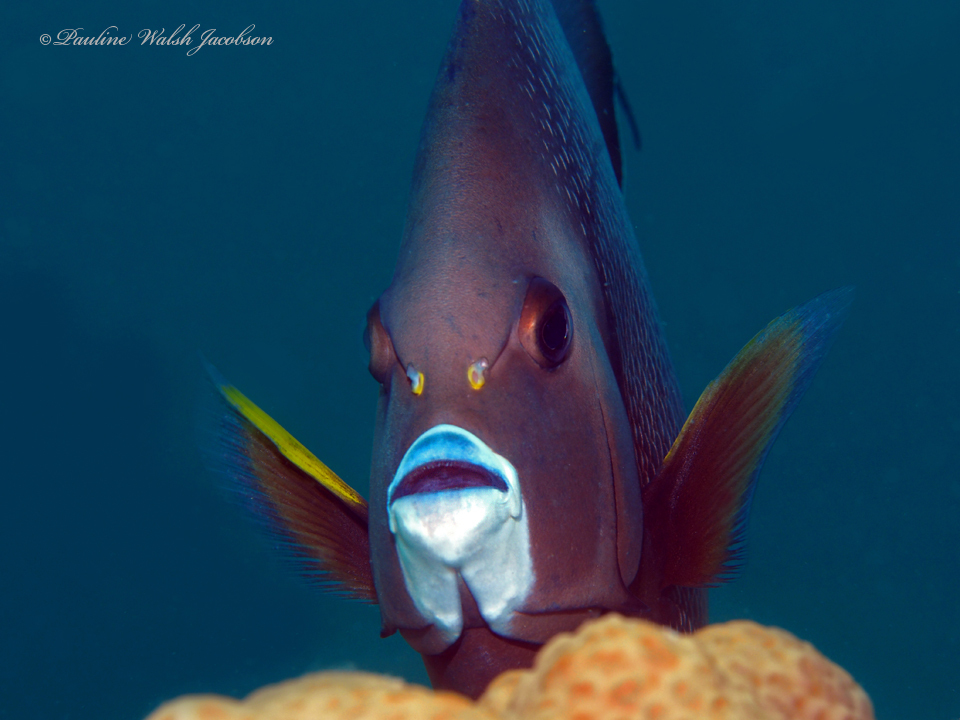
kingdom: Animalia
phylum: Chordata
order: Perciformes
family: Pomacanthidae
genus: Pomacanthus
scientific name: Pomacanthus arcuatus
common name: Gray angelfish
